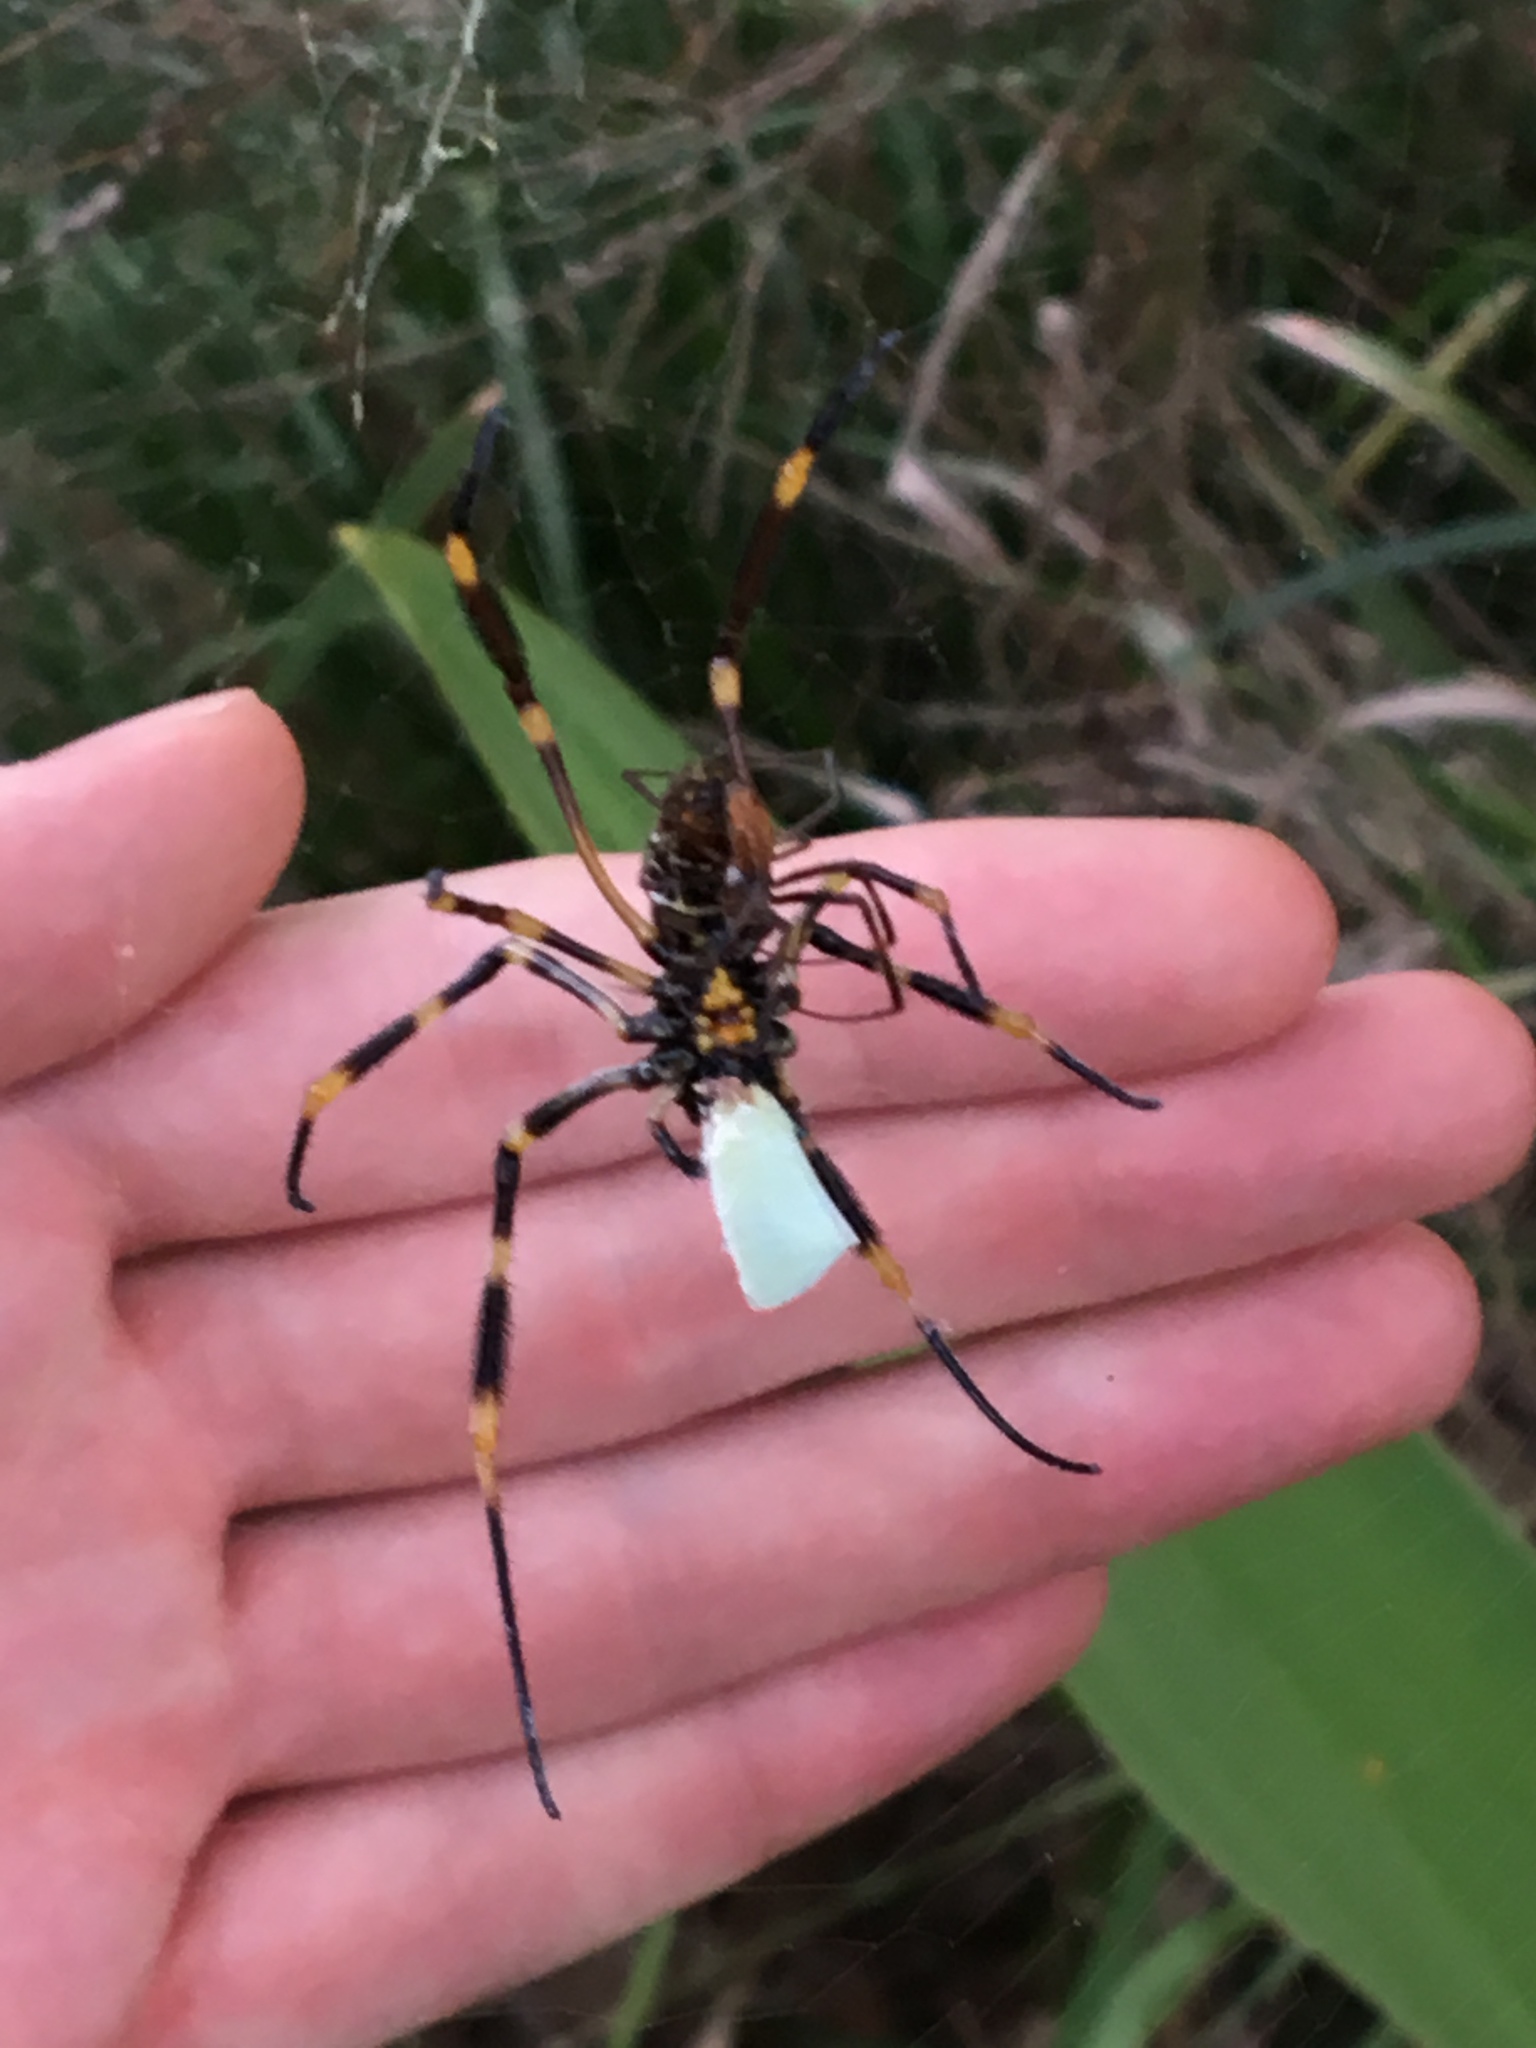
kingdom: Animalia
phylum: Arthropoda
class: Arachnida
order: Araneae
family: Araneidae
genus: Trichonephila
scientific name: Trichonephila plumipes
